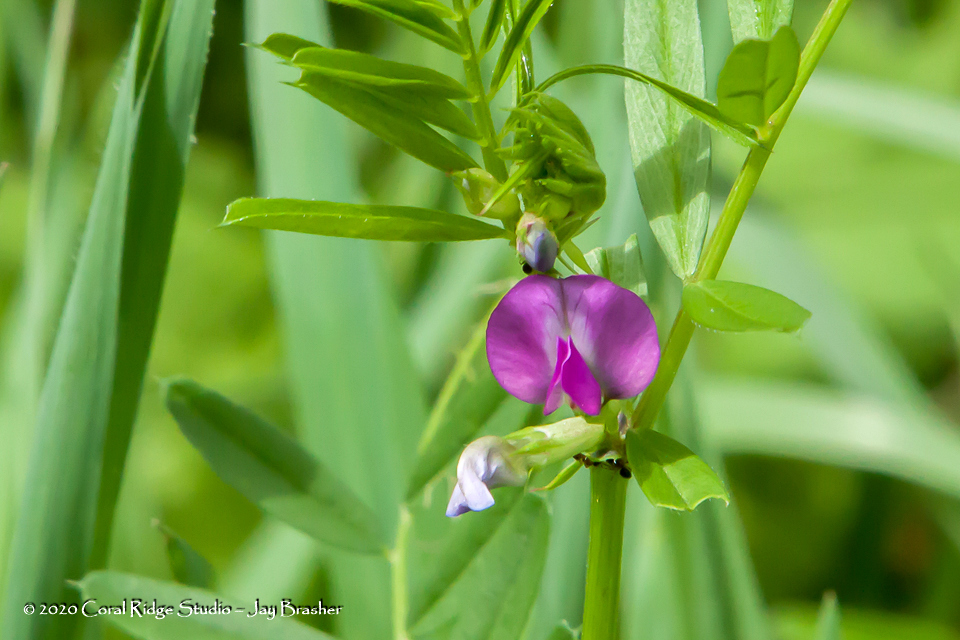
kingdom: Plantae
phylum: Tracheophyta
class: Magnoliopsida
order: Fabales
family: Fabaceae
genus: Vicia
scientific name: Vicia sativa
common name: Garden vetch
